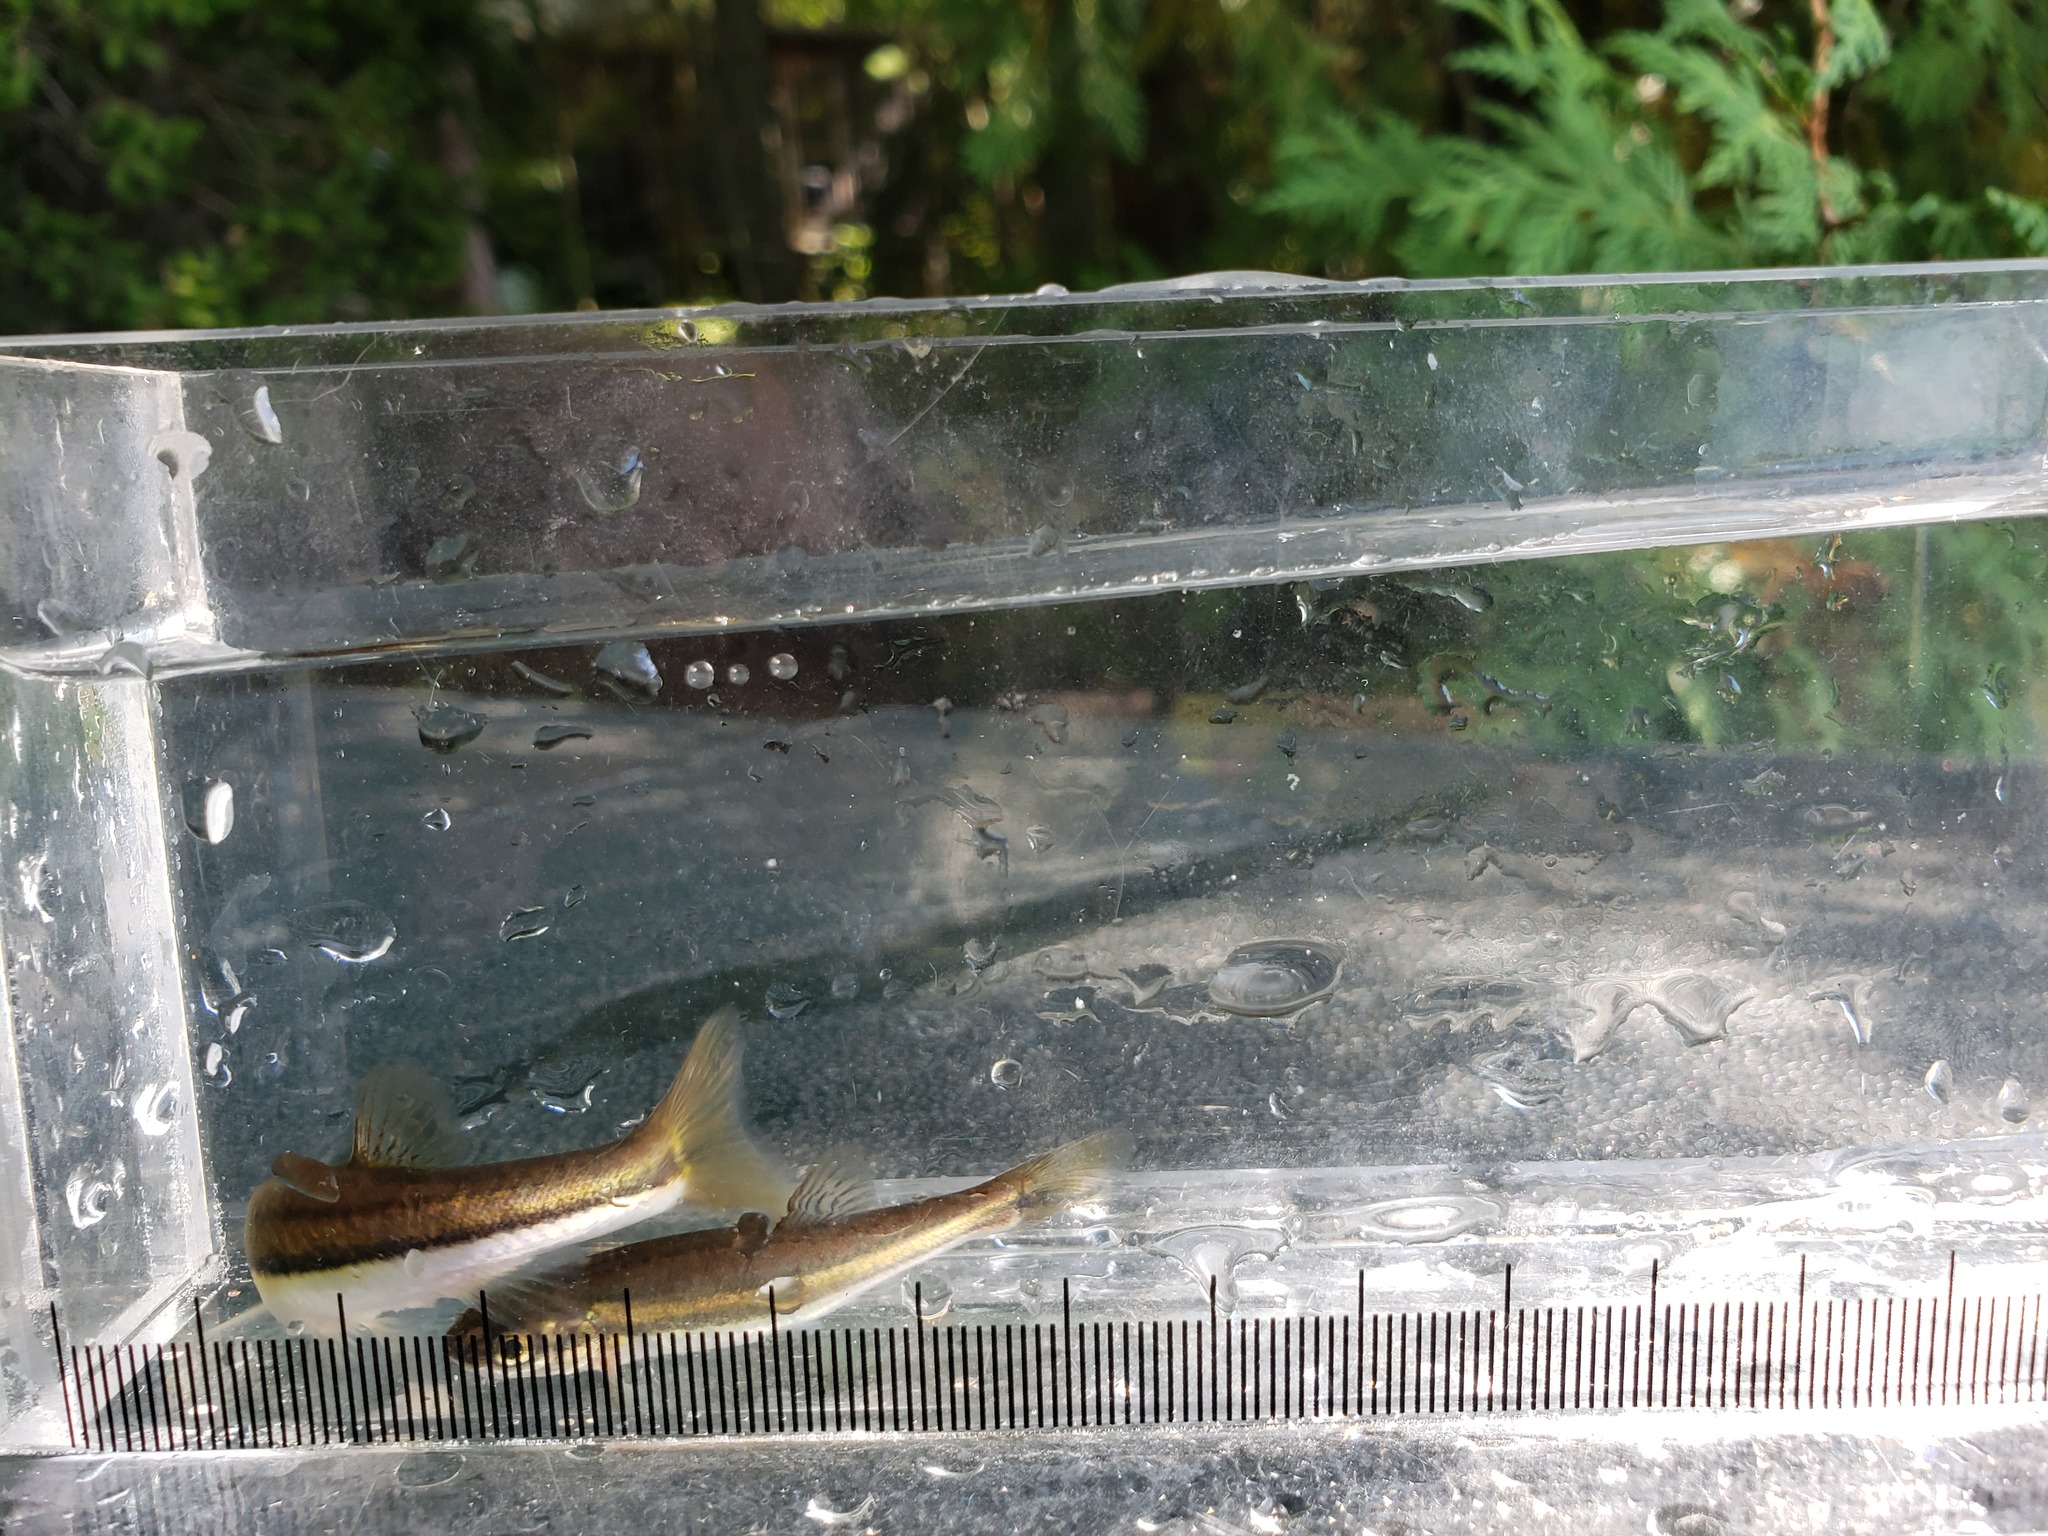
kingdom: Animalia
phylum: Chordata
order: Cypriniformes
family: Cyprinidae
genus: Chrosomus
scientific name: Chrosomus eos
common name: Northern redbelly dace
